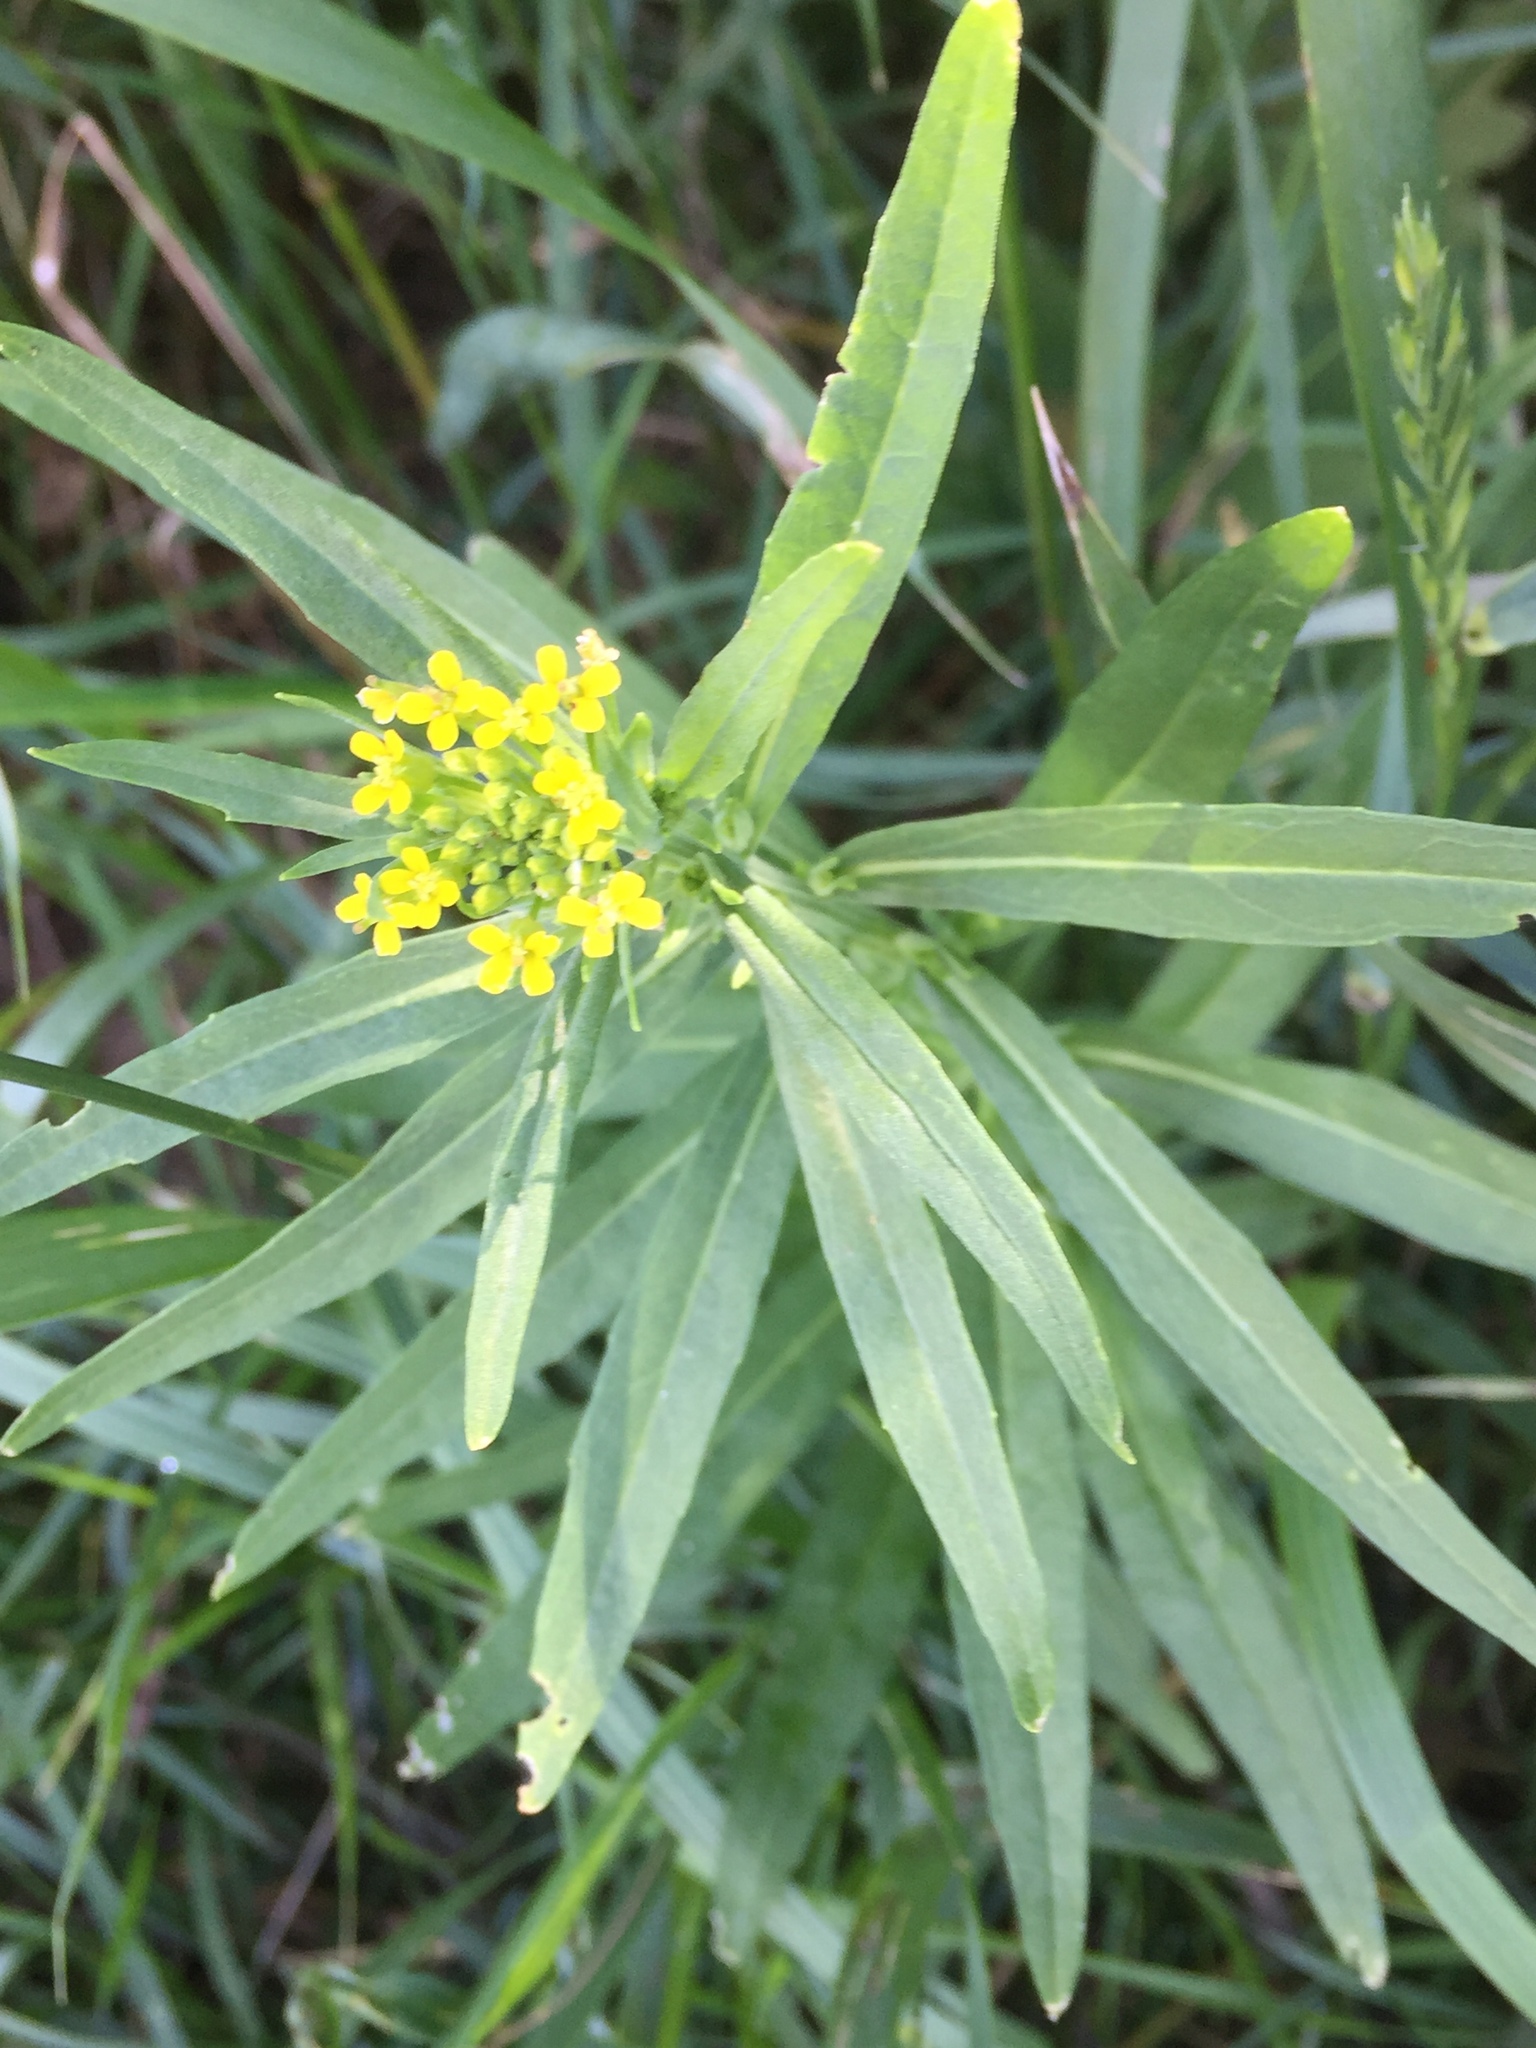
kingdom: Plantae
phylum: Tracheophyta
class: Magnoliopsida
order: Brassicales
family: Brassicaceae
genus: Erysimum
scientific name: Erysimum cheiranthoides
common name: Treacle mustard
